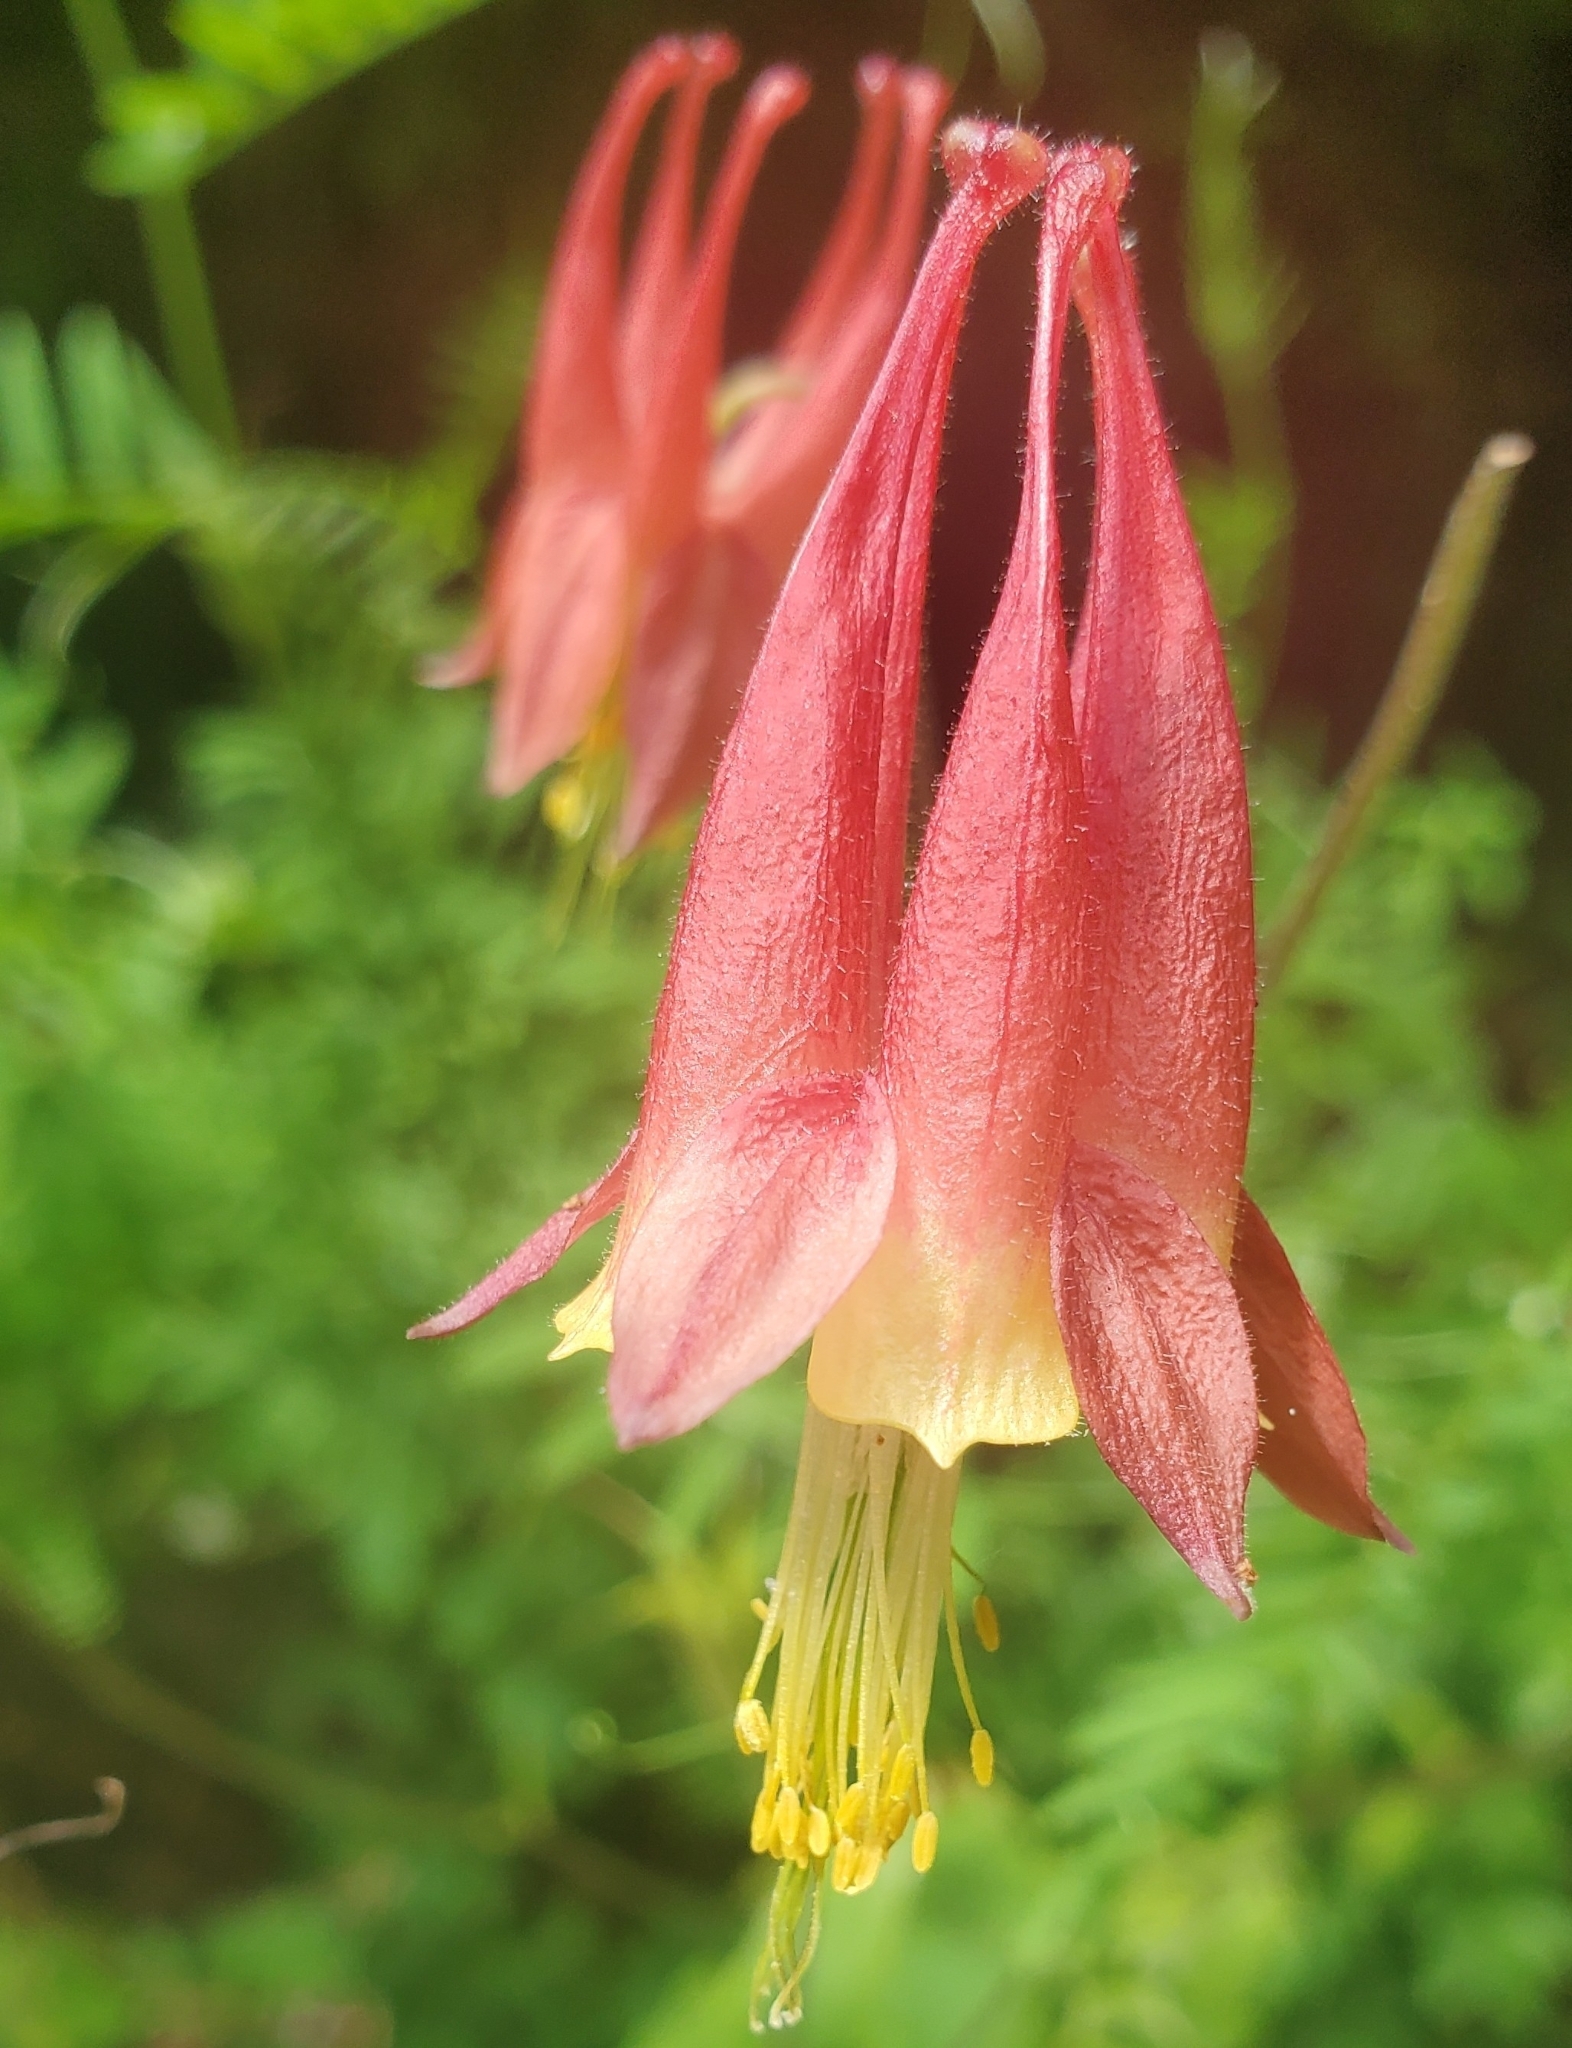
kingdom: Plantae
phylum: Tracheophyta
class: Magnoliopsida
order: Ranunculales
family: Ranunculaceae
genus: Aquilegia
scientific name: Aquilegia canadensis
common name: American columbine
